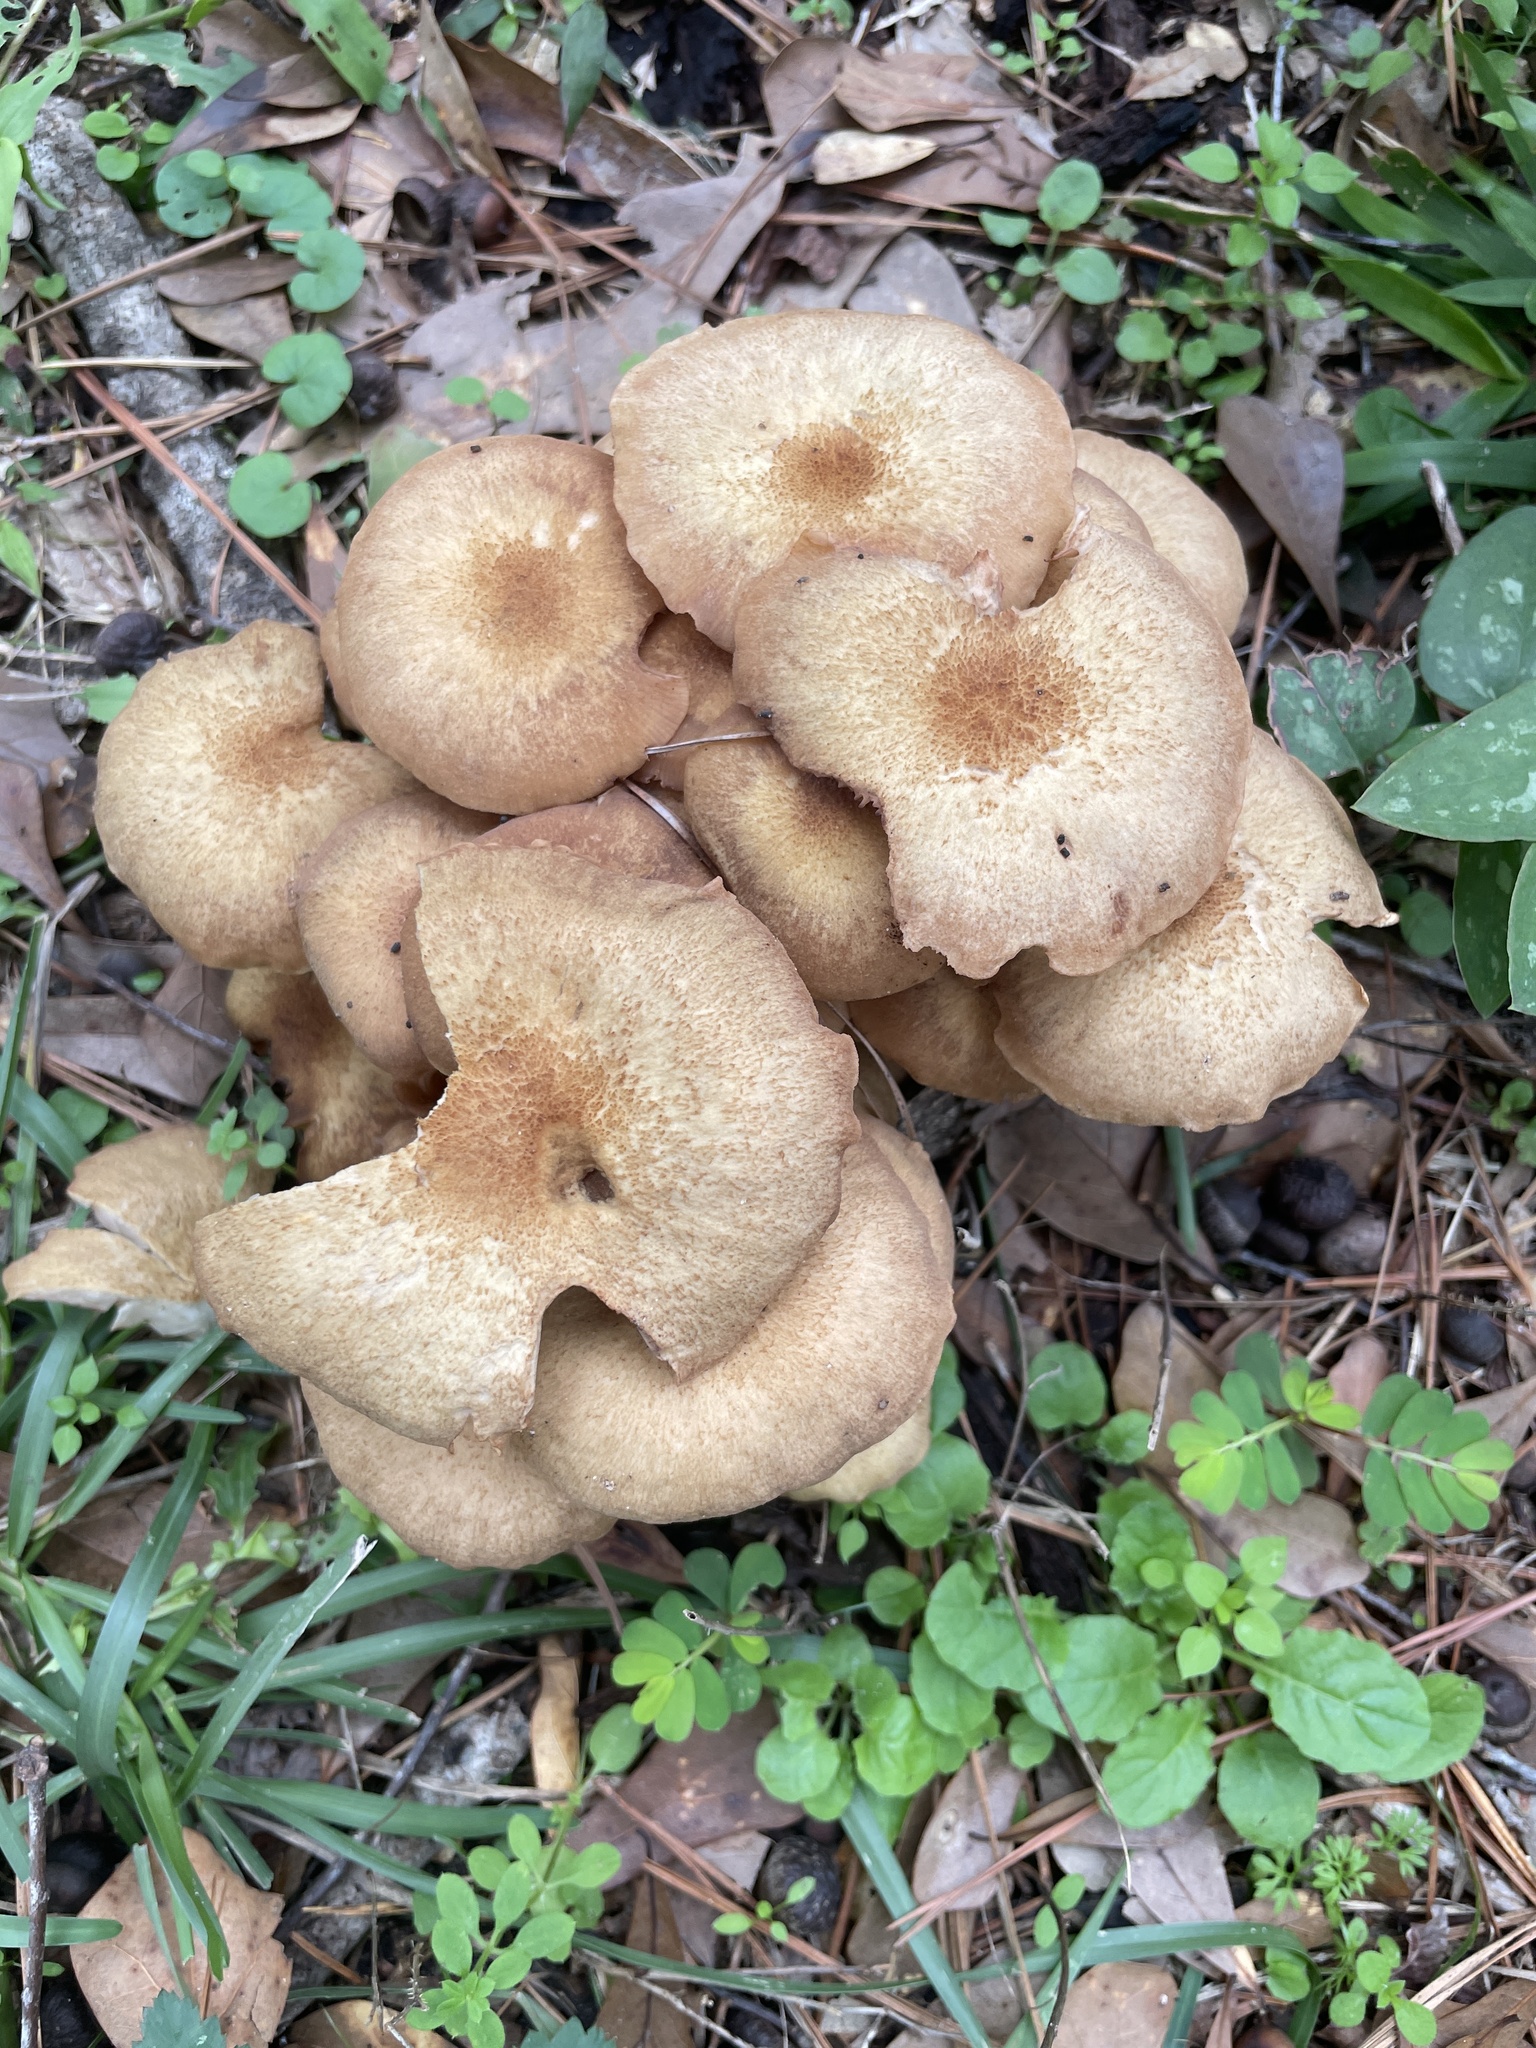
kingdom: Fungi
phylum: Basidiomycota
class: Agaricomycetes
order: Agaricales
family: Physalacriaceae
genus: Desarmillaria
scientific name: Desarmillaria caespitosa
